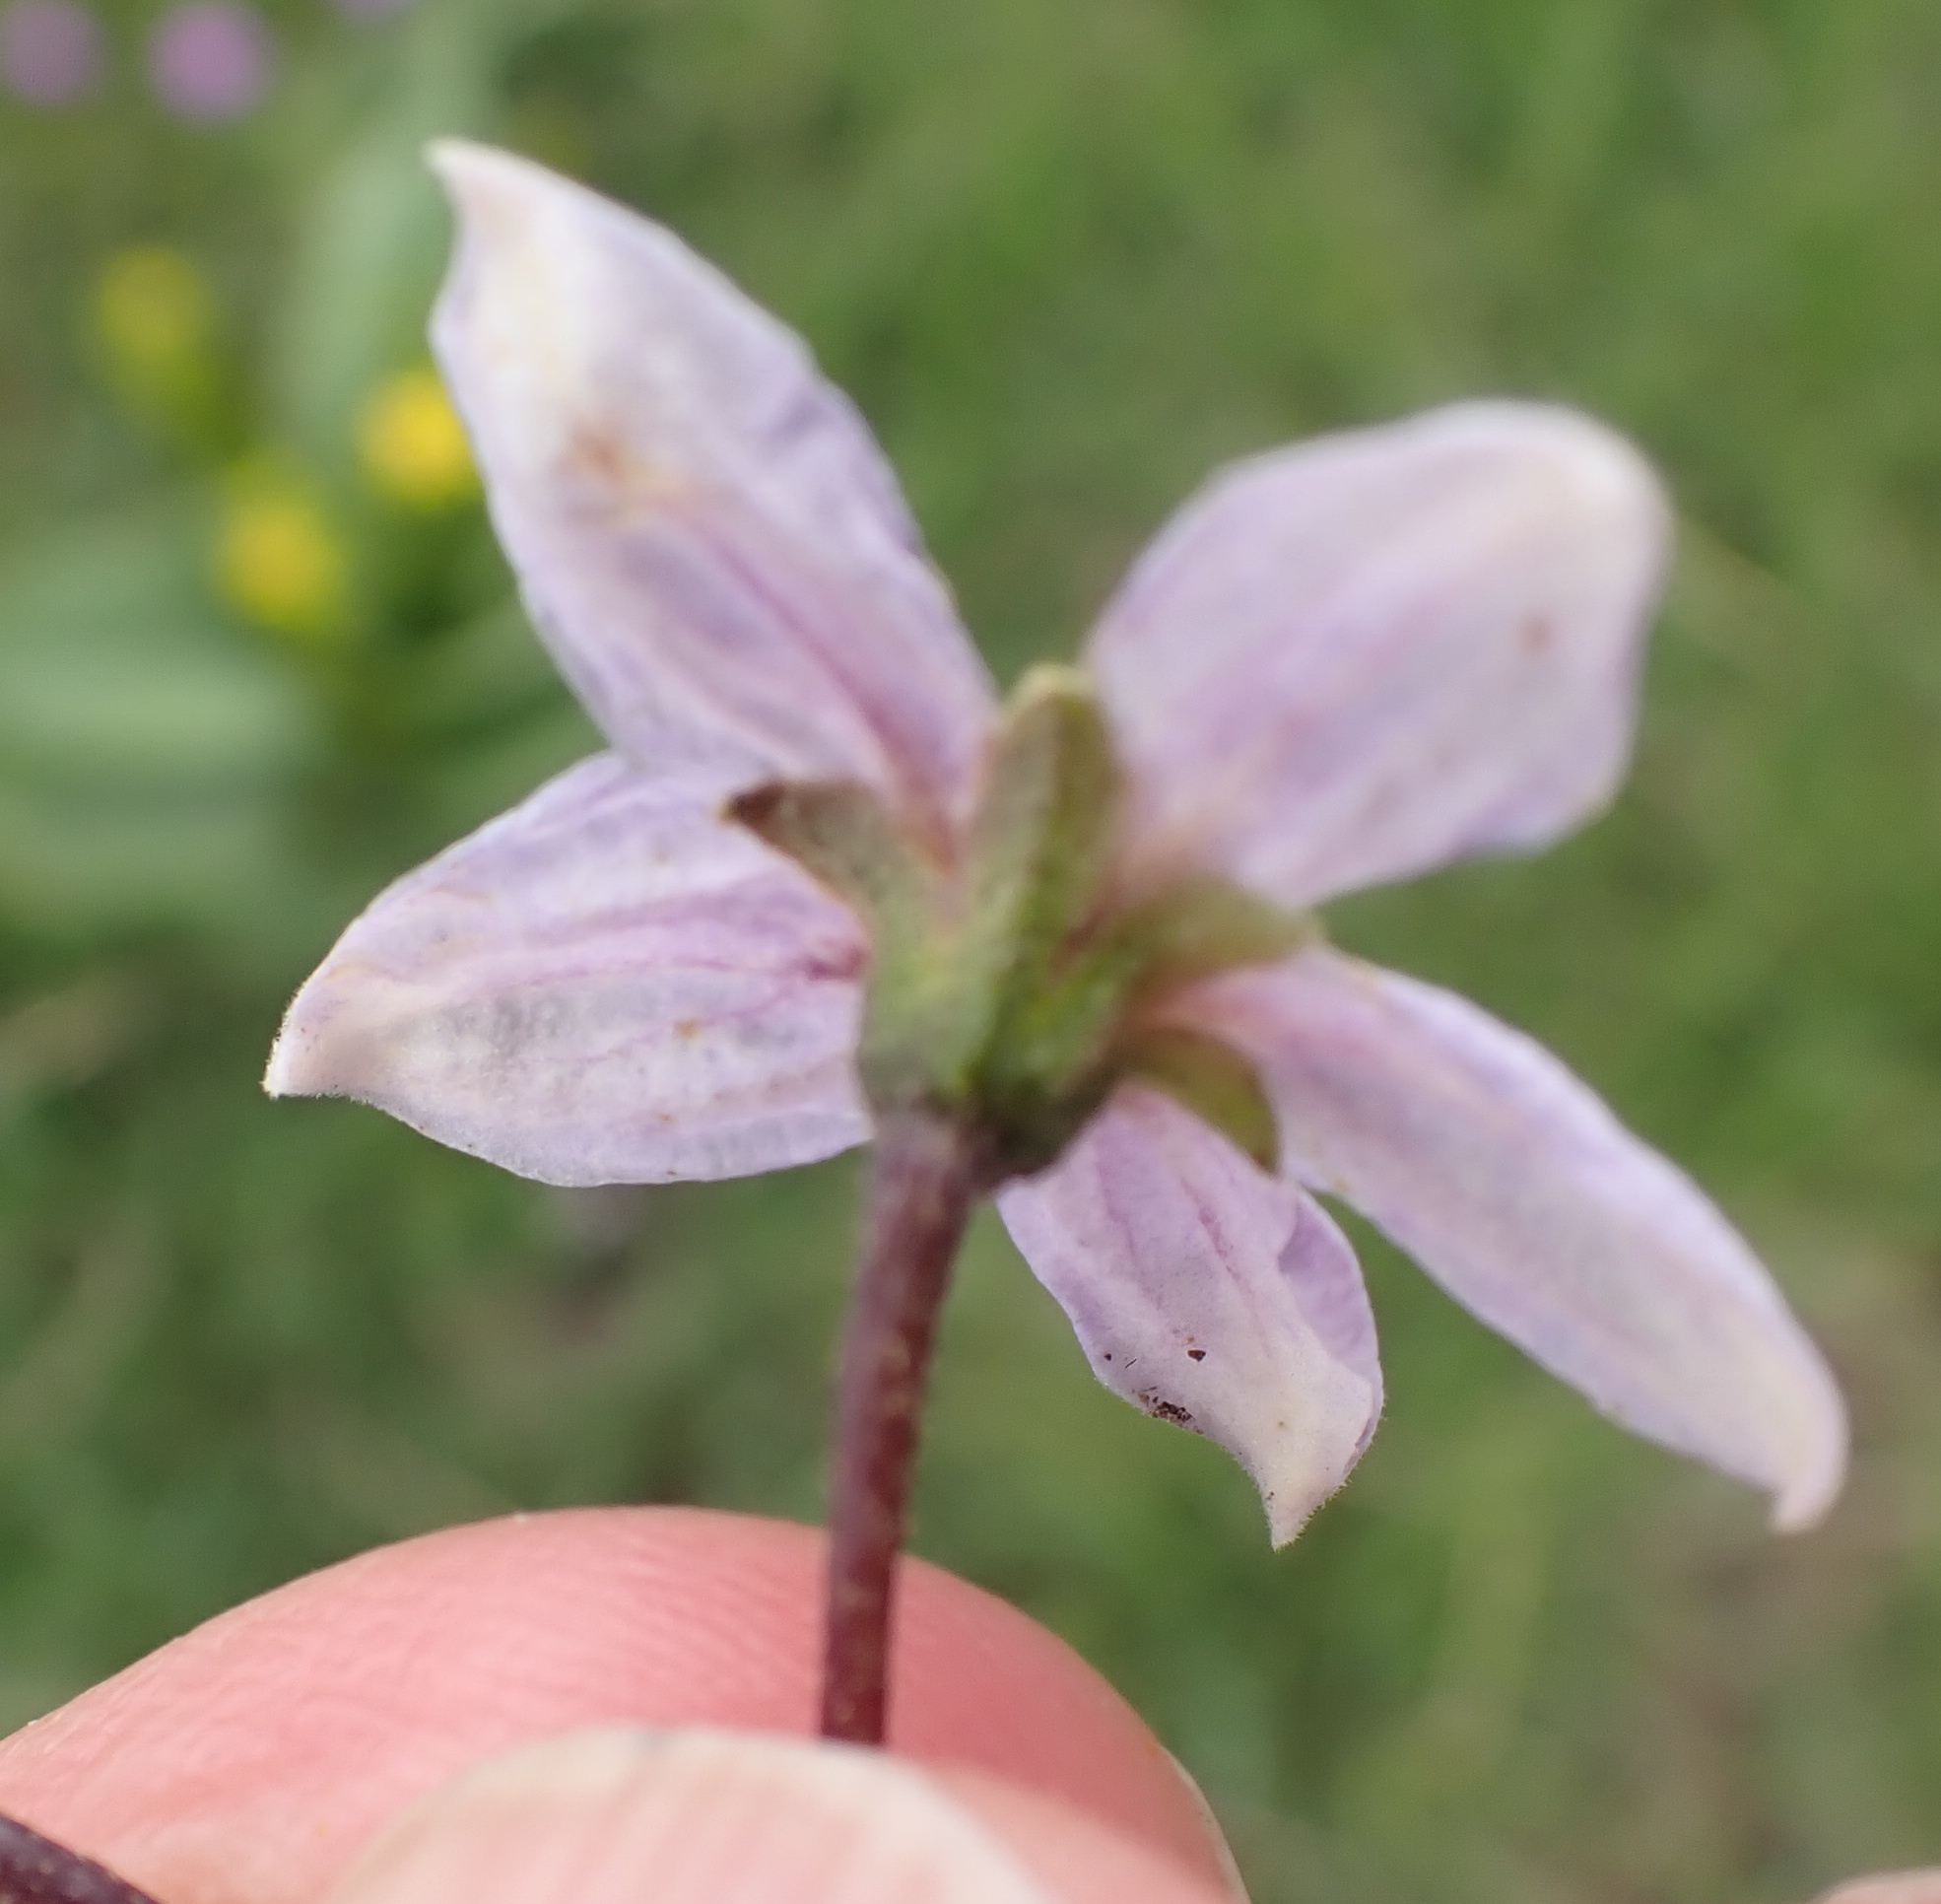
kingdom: Plantae
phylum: Tracheophyta
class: Magnoliopsida
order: Solanales
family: Solanaceae
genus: Solanum
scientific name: Solanum campylacanthum
